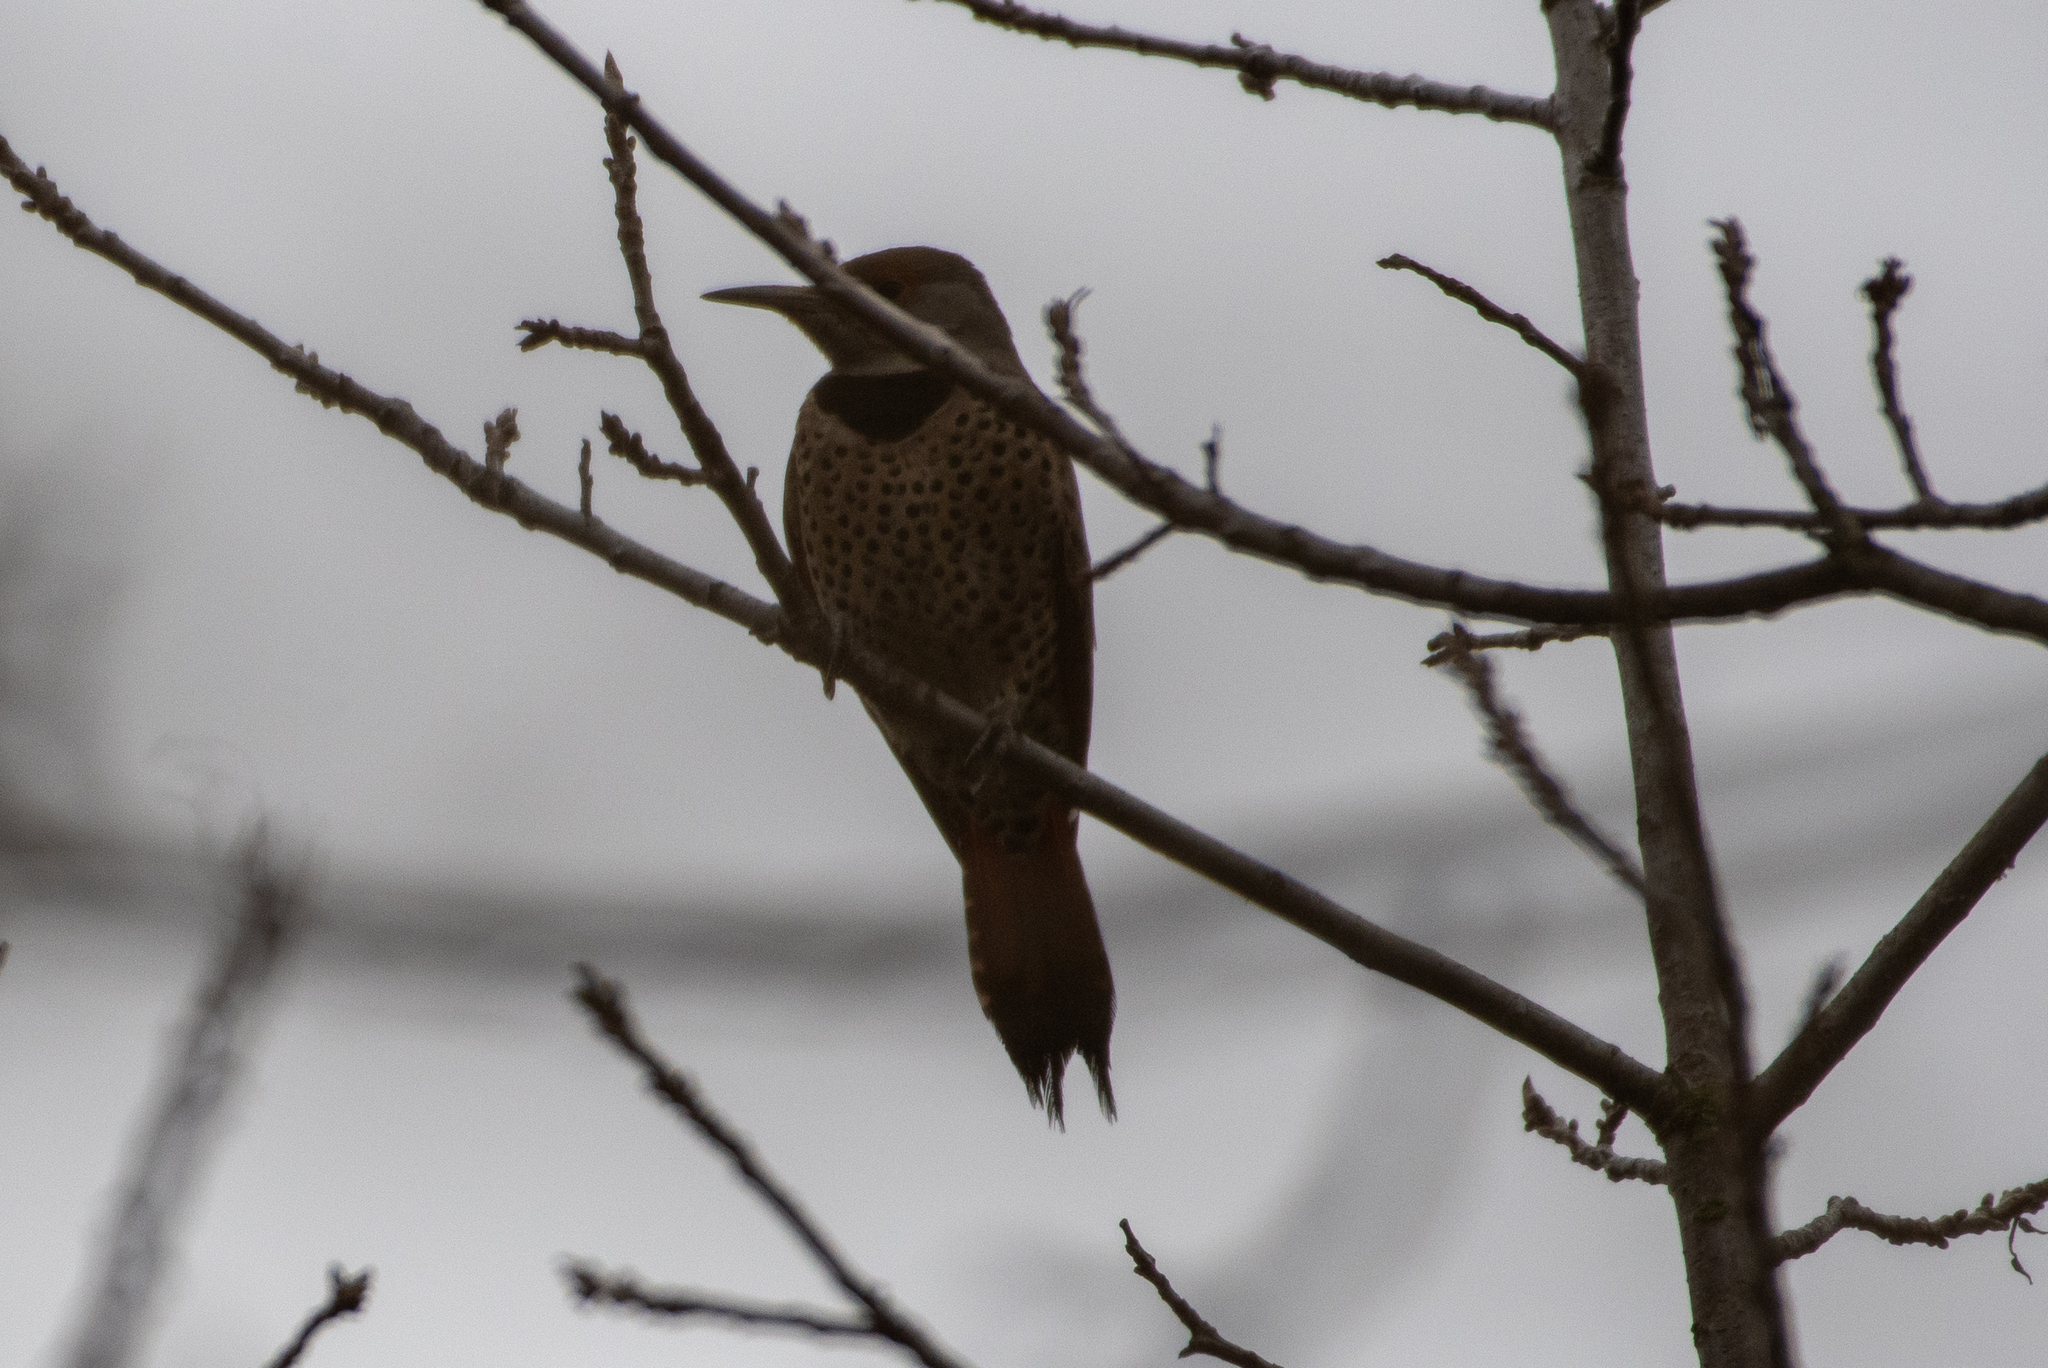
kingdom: Animalia
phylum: Chordata
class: Aves
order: Piciformes
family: Picidae
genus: Colaptes
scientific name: Colaptes auratus
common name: Northern flicker
